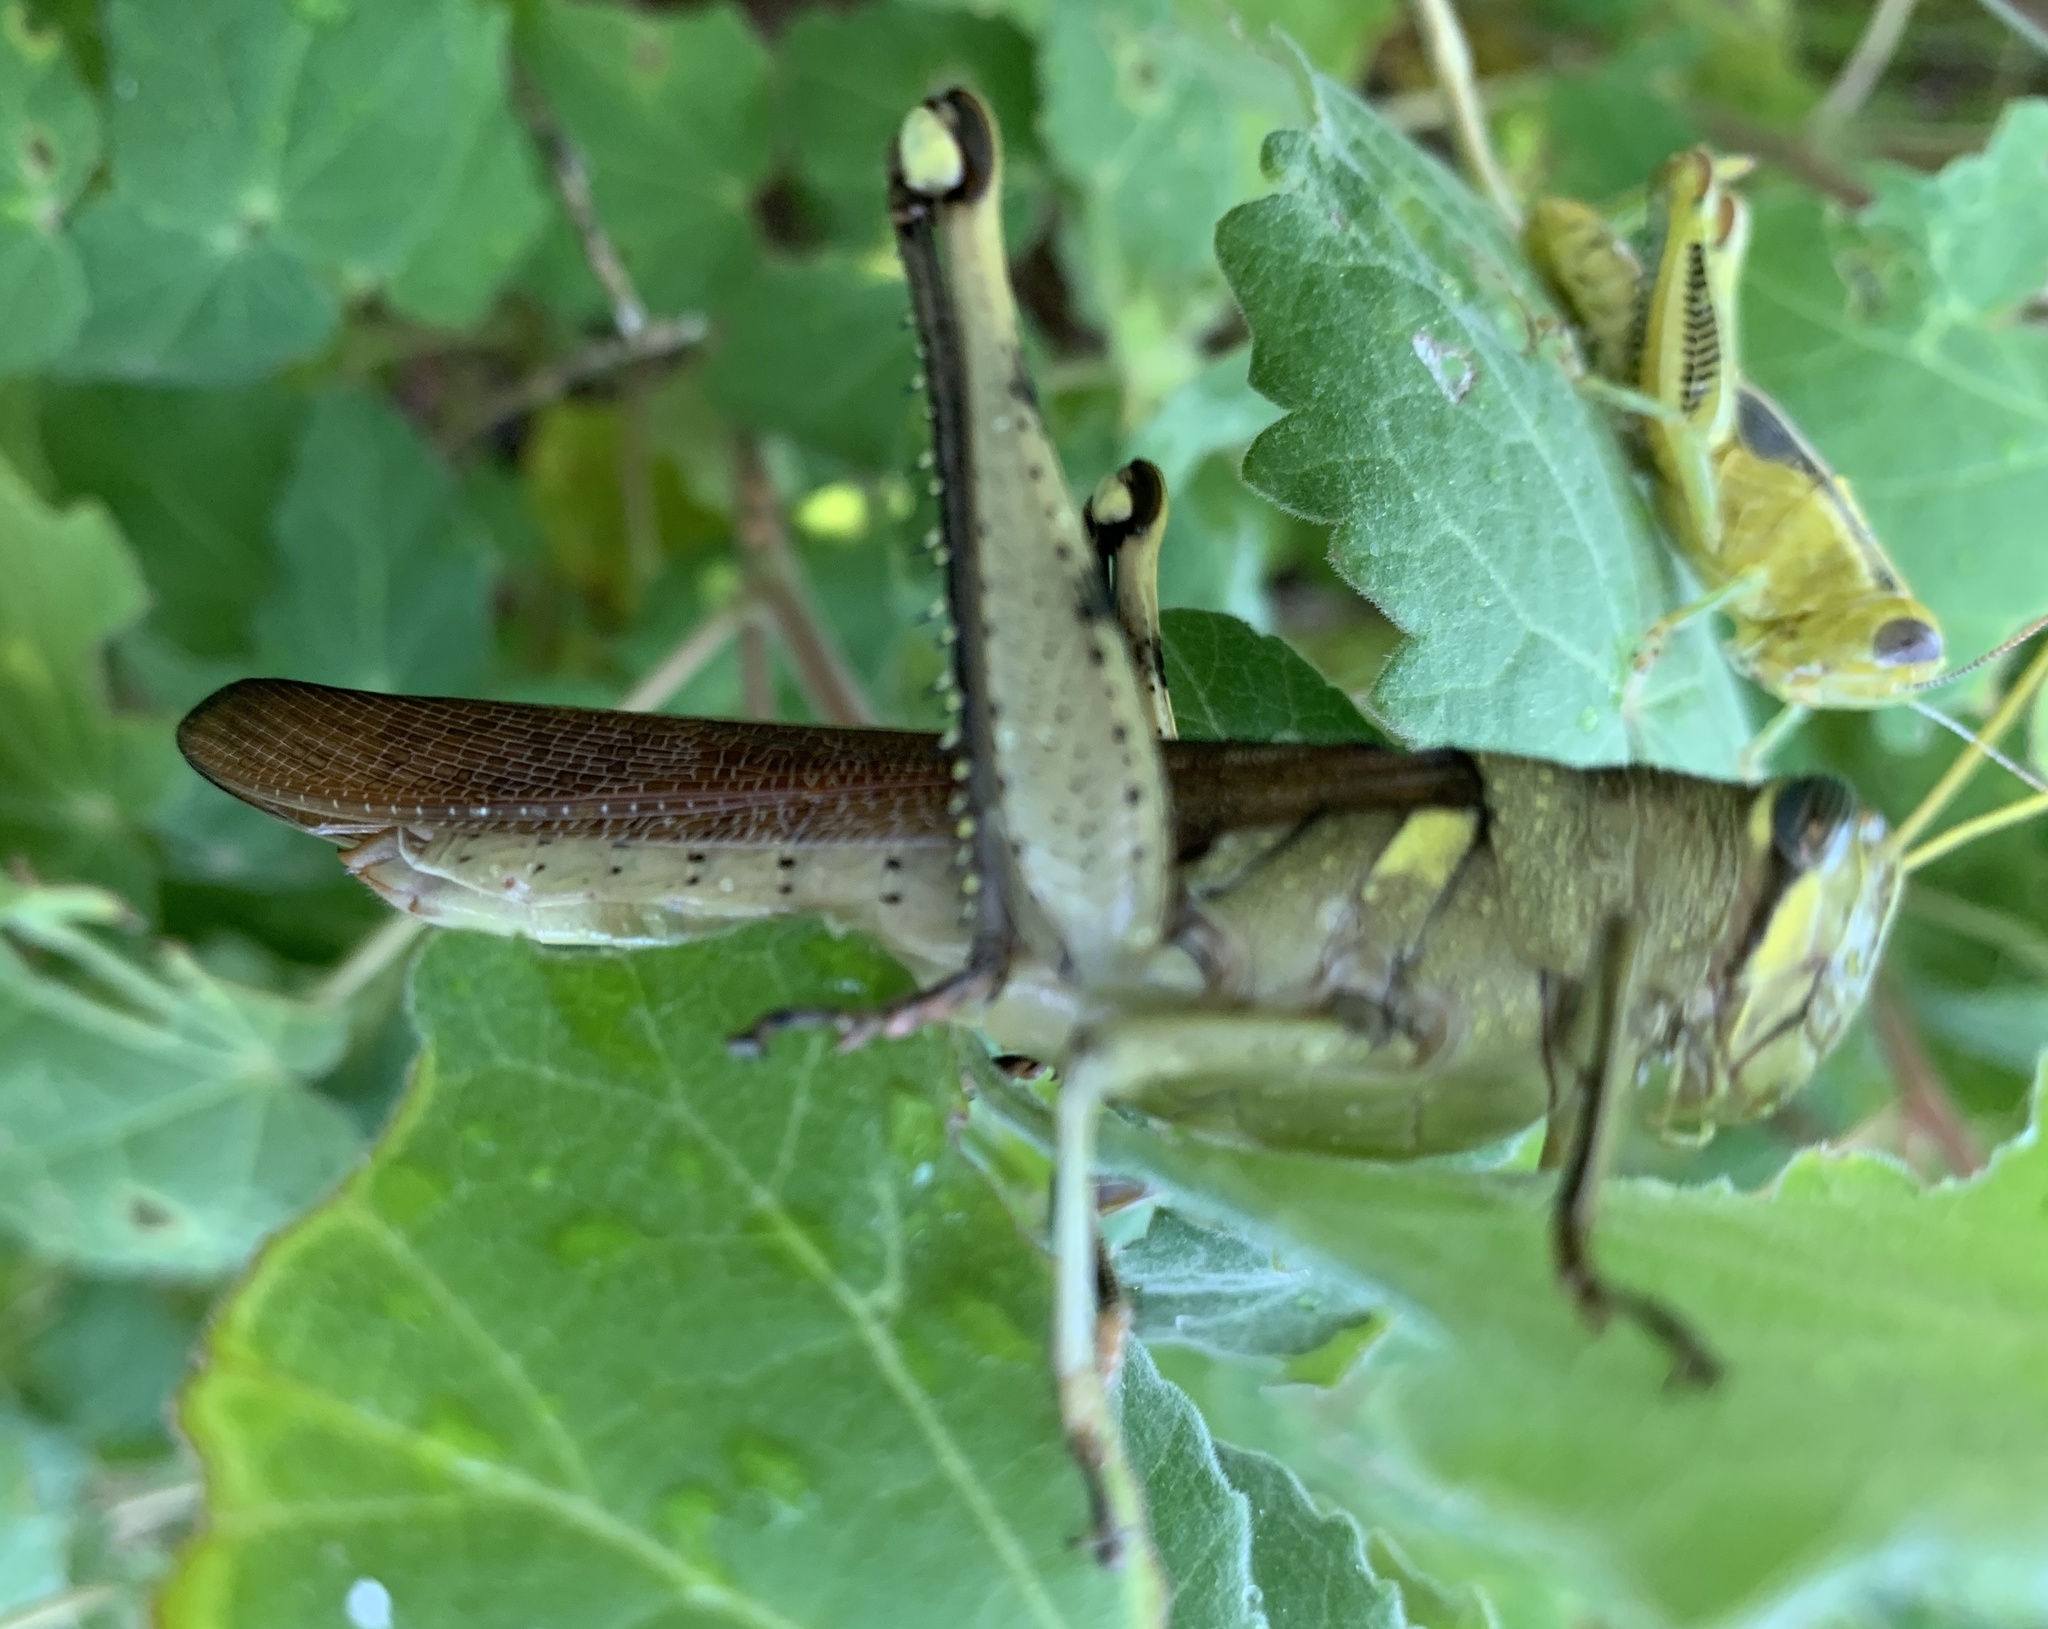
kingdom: Animalia
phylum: Arthropoda
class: Insecta
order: Orthoptera
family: Acrididae
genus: Schistocerca
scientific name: Schistocerca obscura
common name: Obscure bird grasshopper
